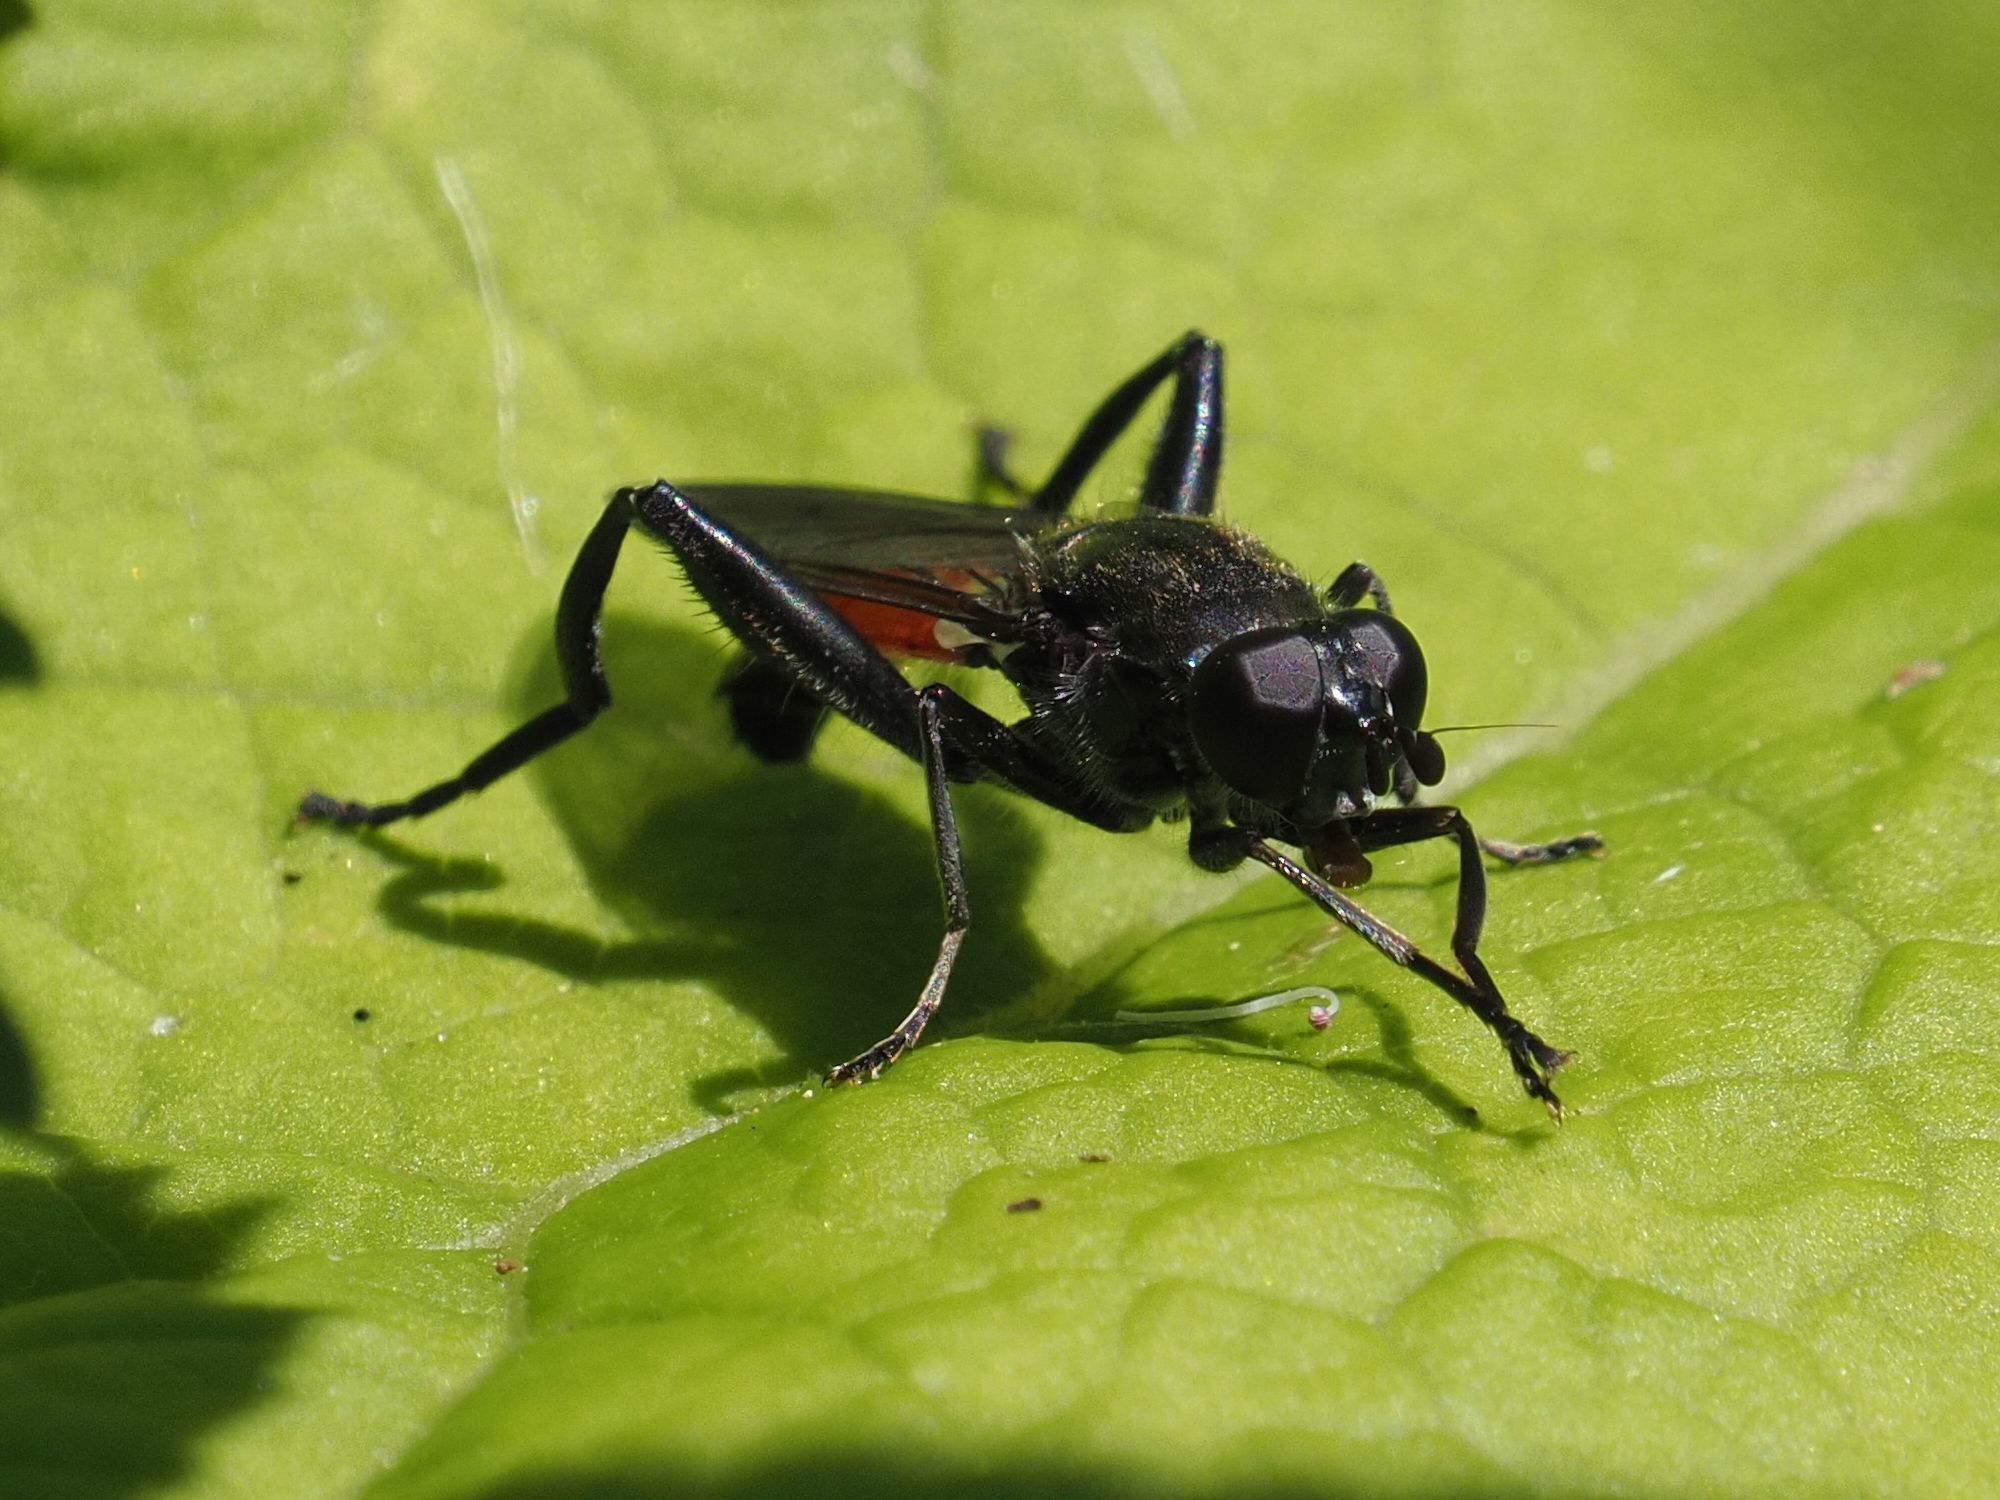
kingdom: Animalia
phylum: Arthropoda
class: Insecta
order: Diptera
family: Syrphidae
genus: Brachypalpoides
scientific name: Brachypalpoides lenta
